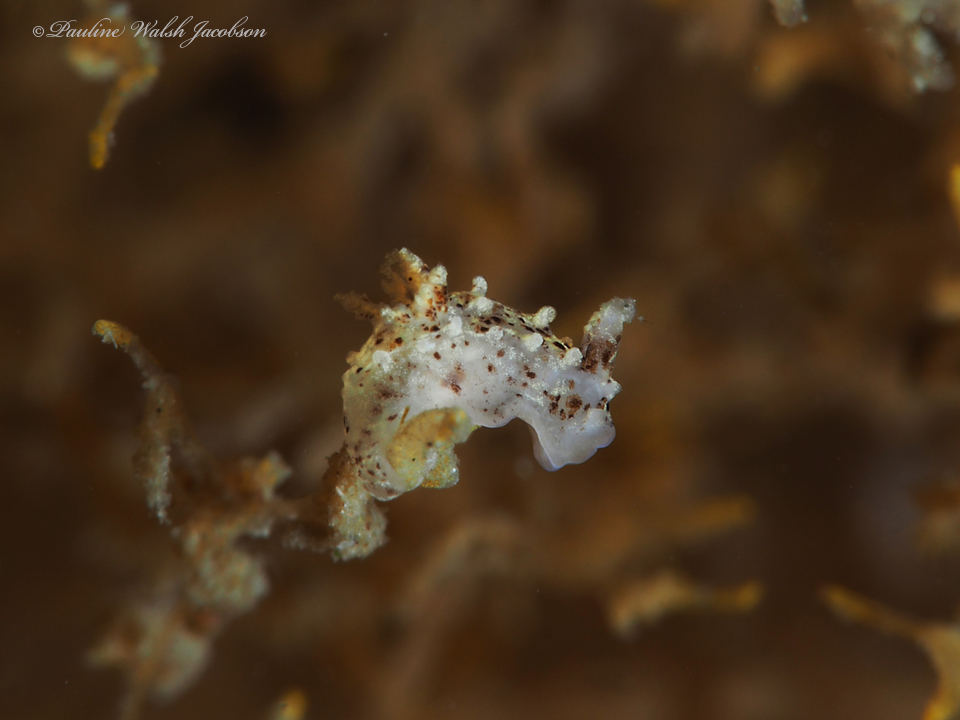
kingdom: Animalia
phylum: Mollusca
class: Gastropoda
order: Nudibranchia
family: Goniodorididae
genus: Okenia
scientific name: Okenia polycerelloides
